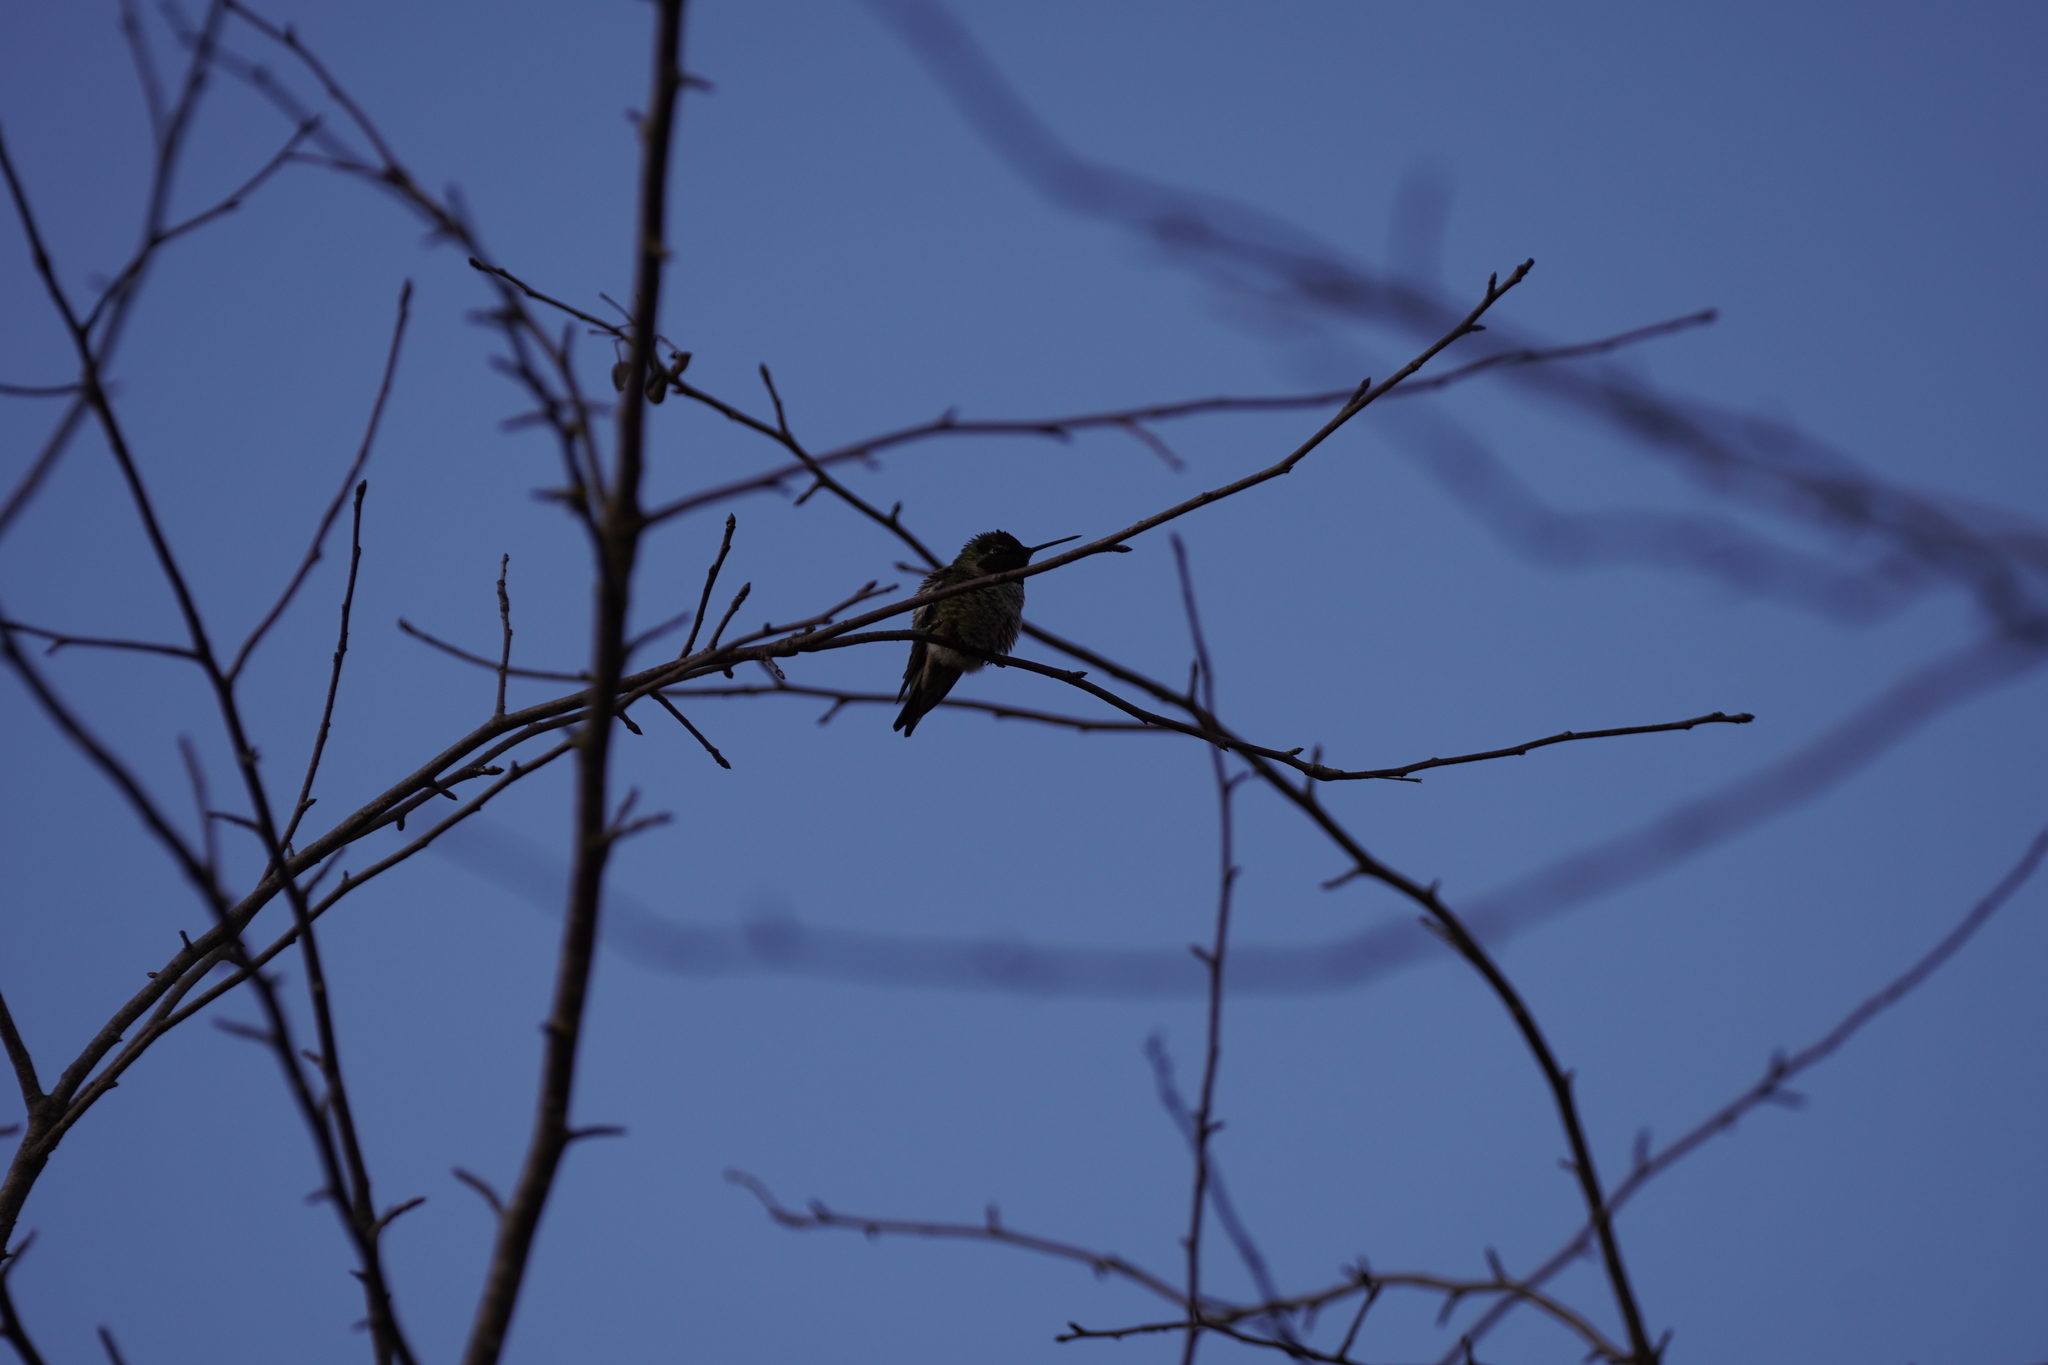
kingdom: Animalia
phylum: Chordata
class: Aves
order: Apodiformes
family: Trochilidae
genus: Calypte
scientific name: Calypte anna
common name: Anna's hummingbird
